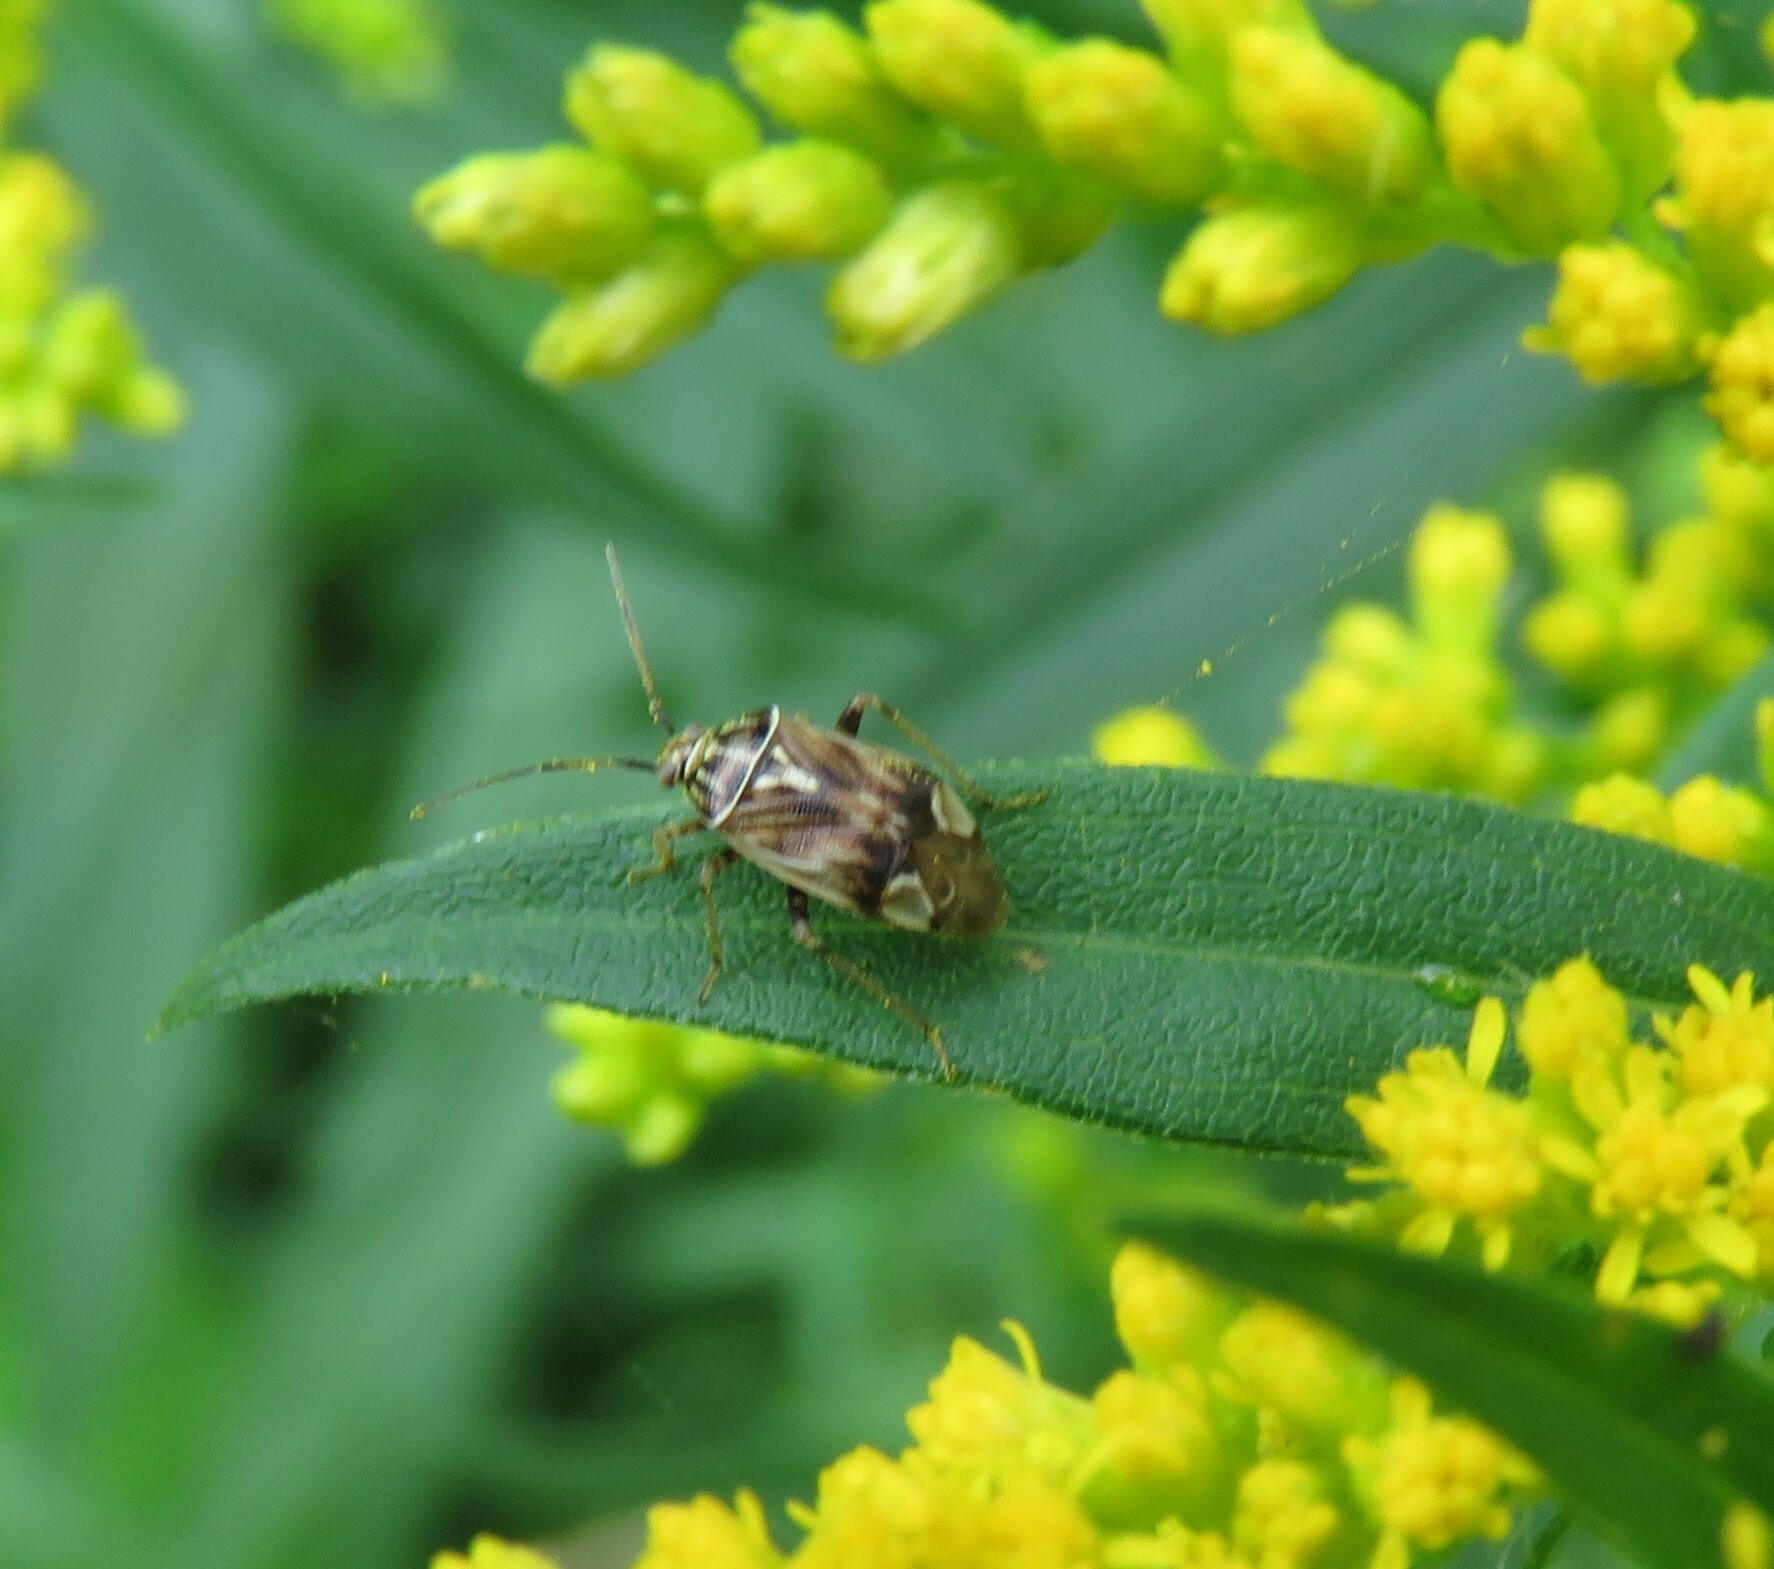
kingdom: Animalia
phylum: Arthropoda
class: Insecta
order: Hemiptera
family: Miridae
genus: Lygus
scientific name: Lygus lineolaris
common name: North american tarnished plant bug
